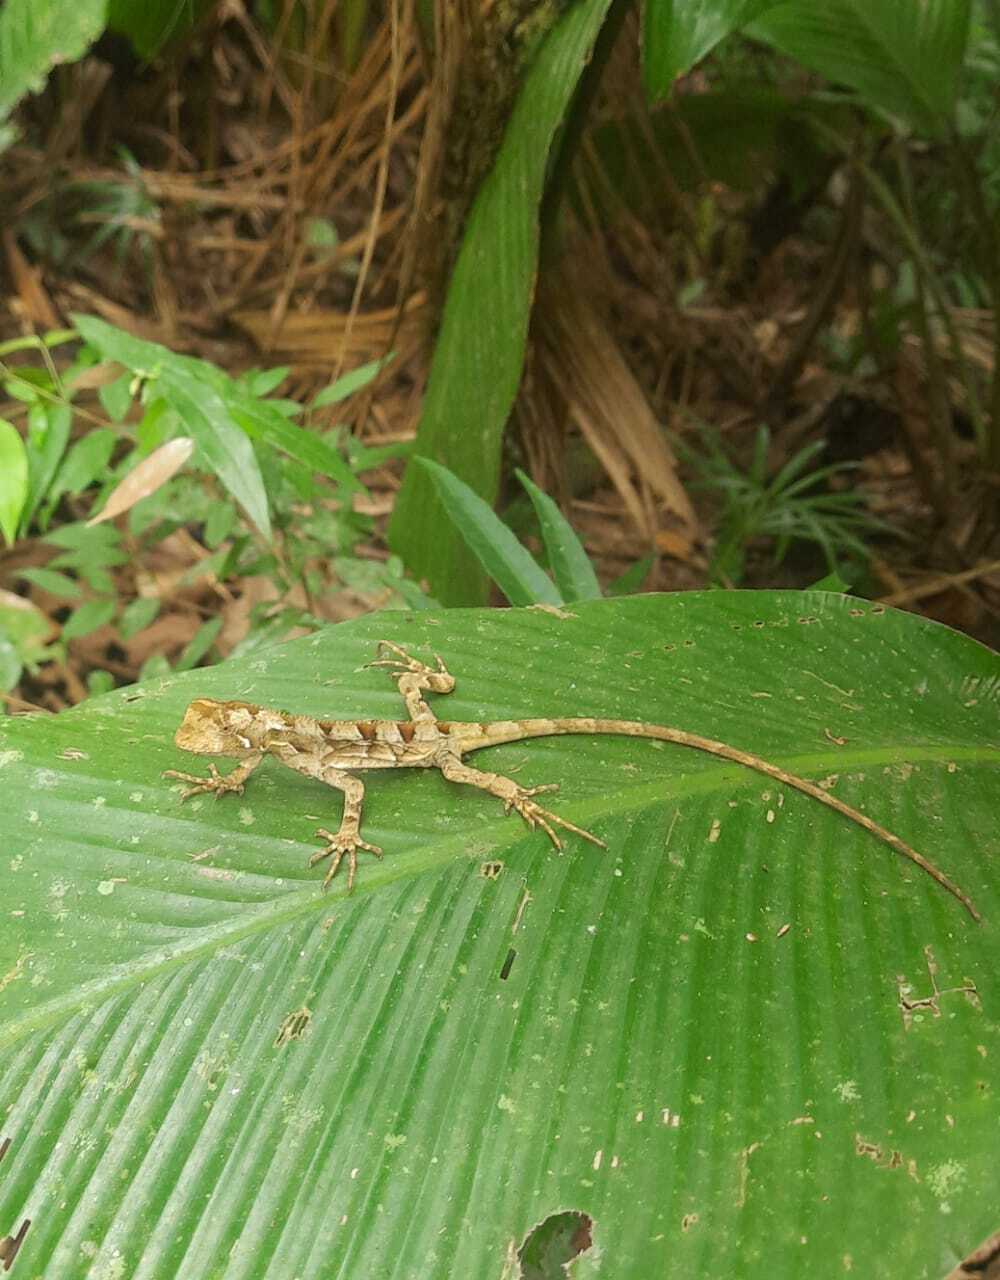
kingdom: Animalia
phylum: Chordata
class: Squamata
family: Leiosauridae
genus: Enyalius
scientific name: Enyalius iheringii
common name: Ihering's fathead anole
